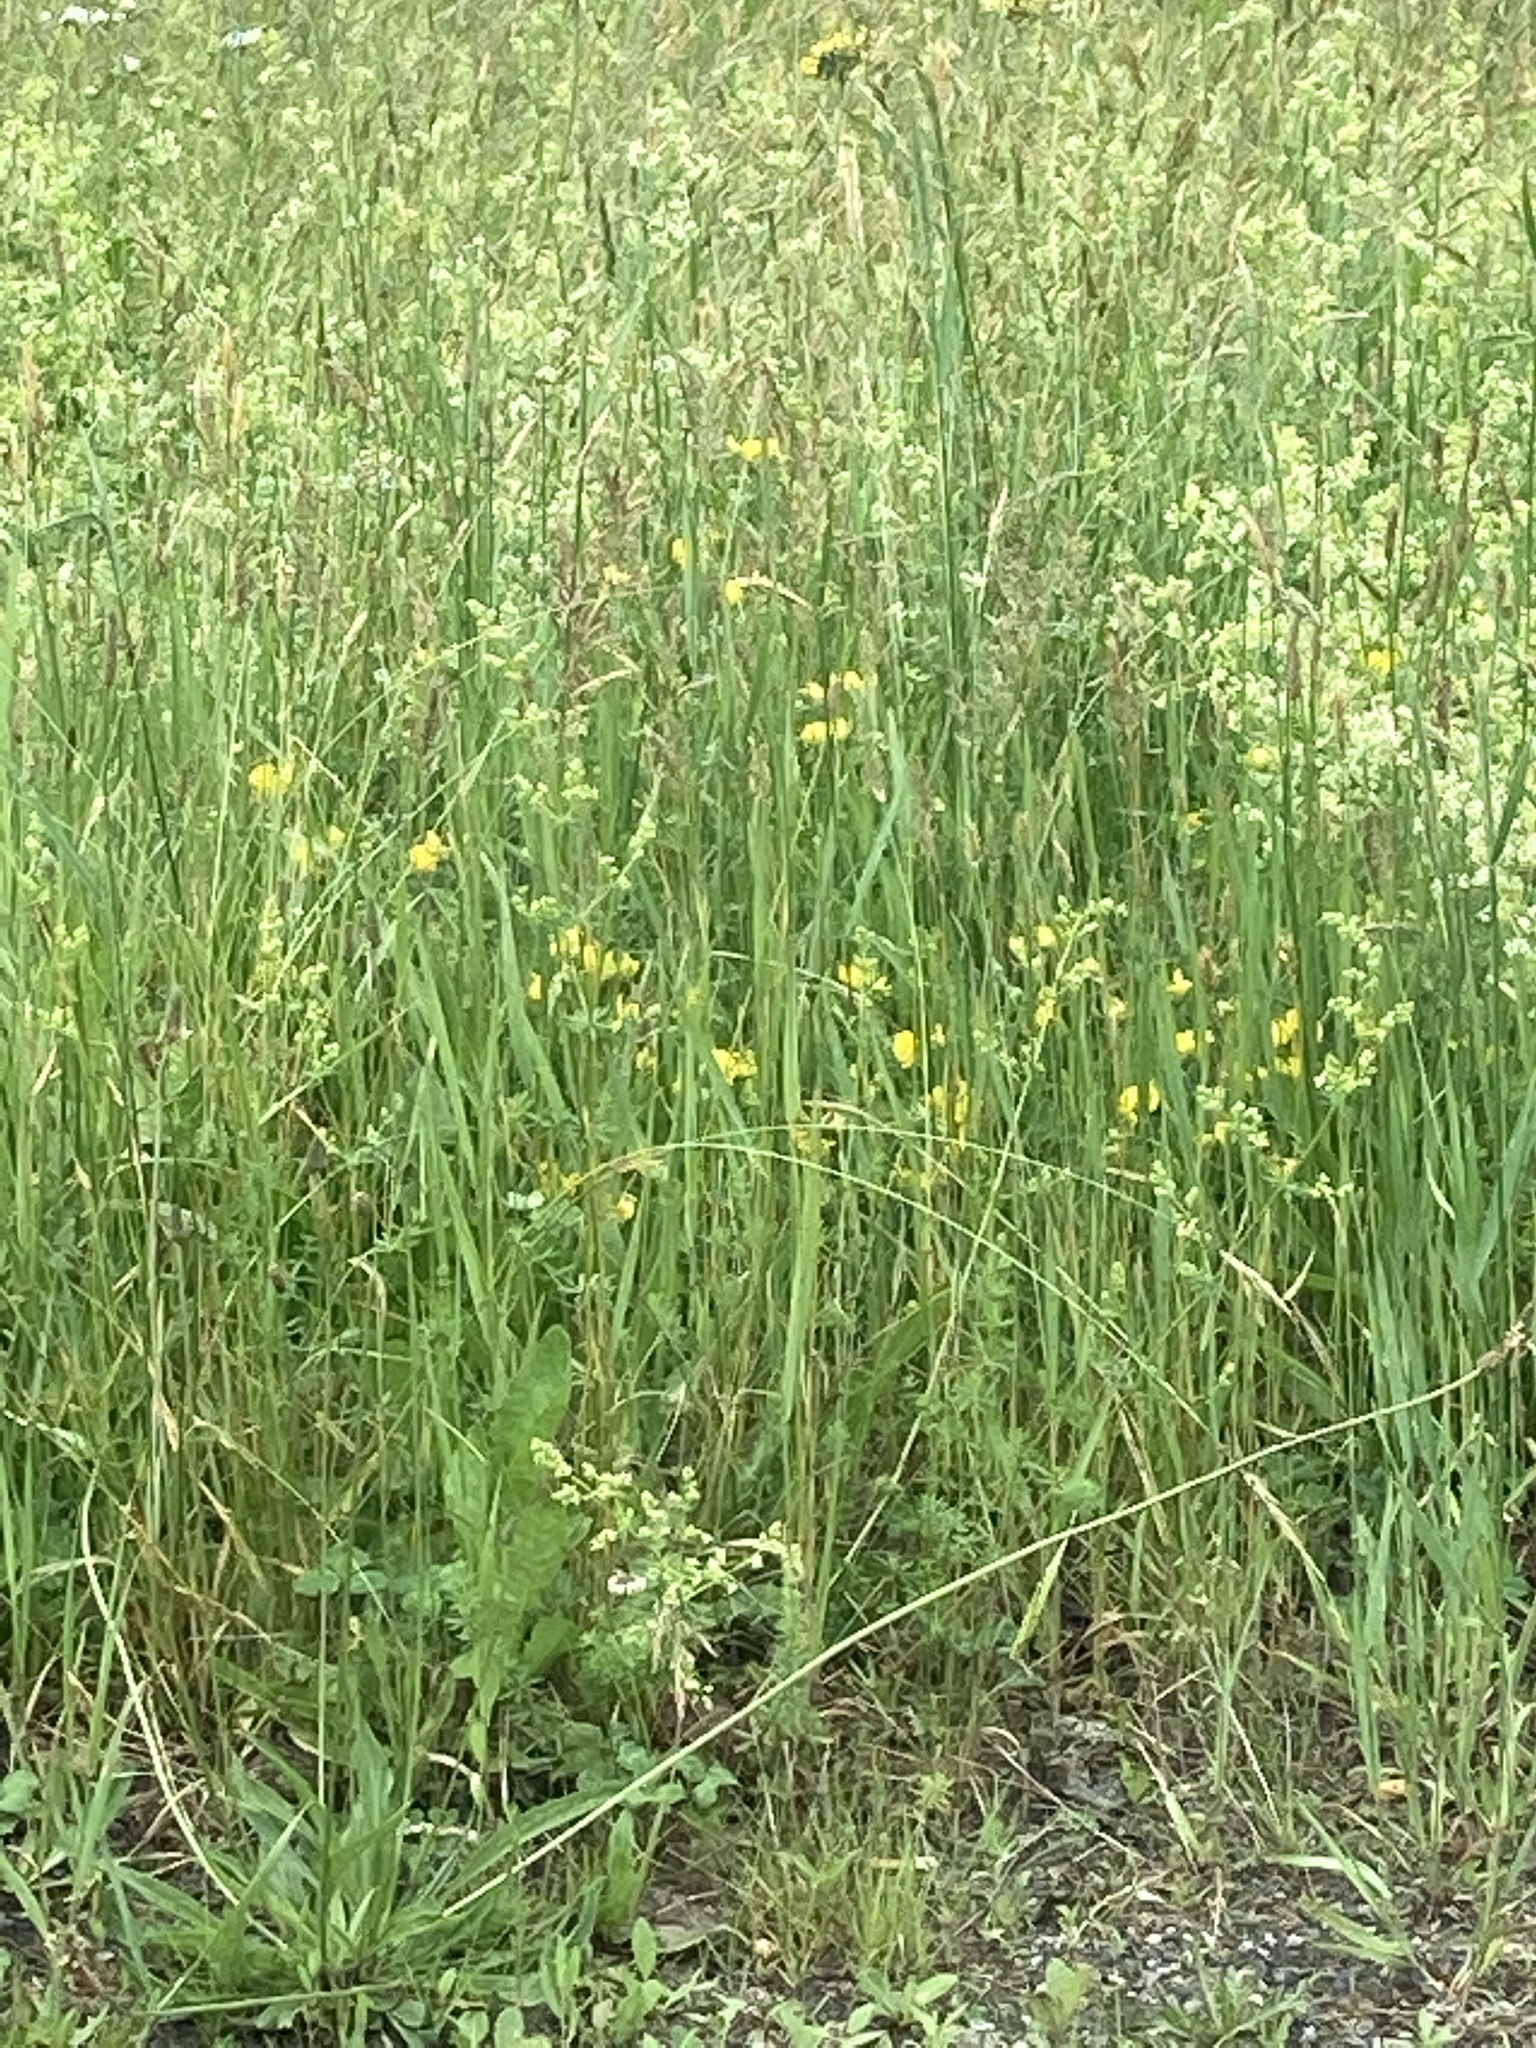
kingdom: Plantae
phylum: Tracheophyta
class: Magnoliopsida
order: Fabales
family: Fabaceae
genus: Lotus
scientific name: Lotus corniculatus
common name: Common bird's-foot-trefoil
